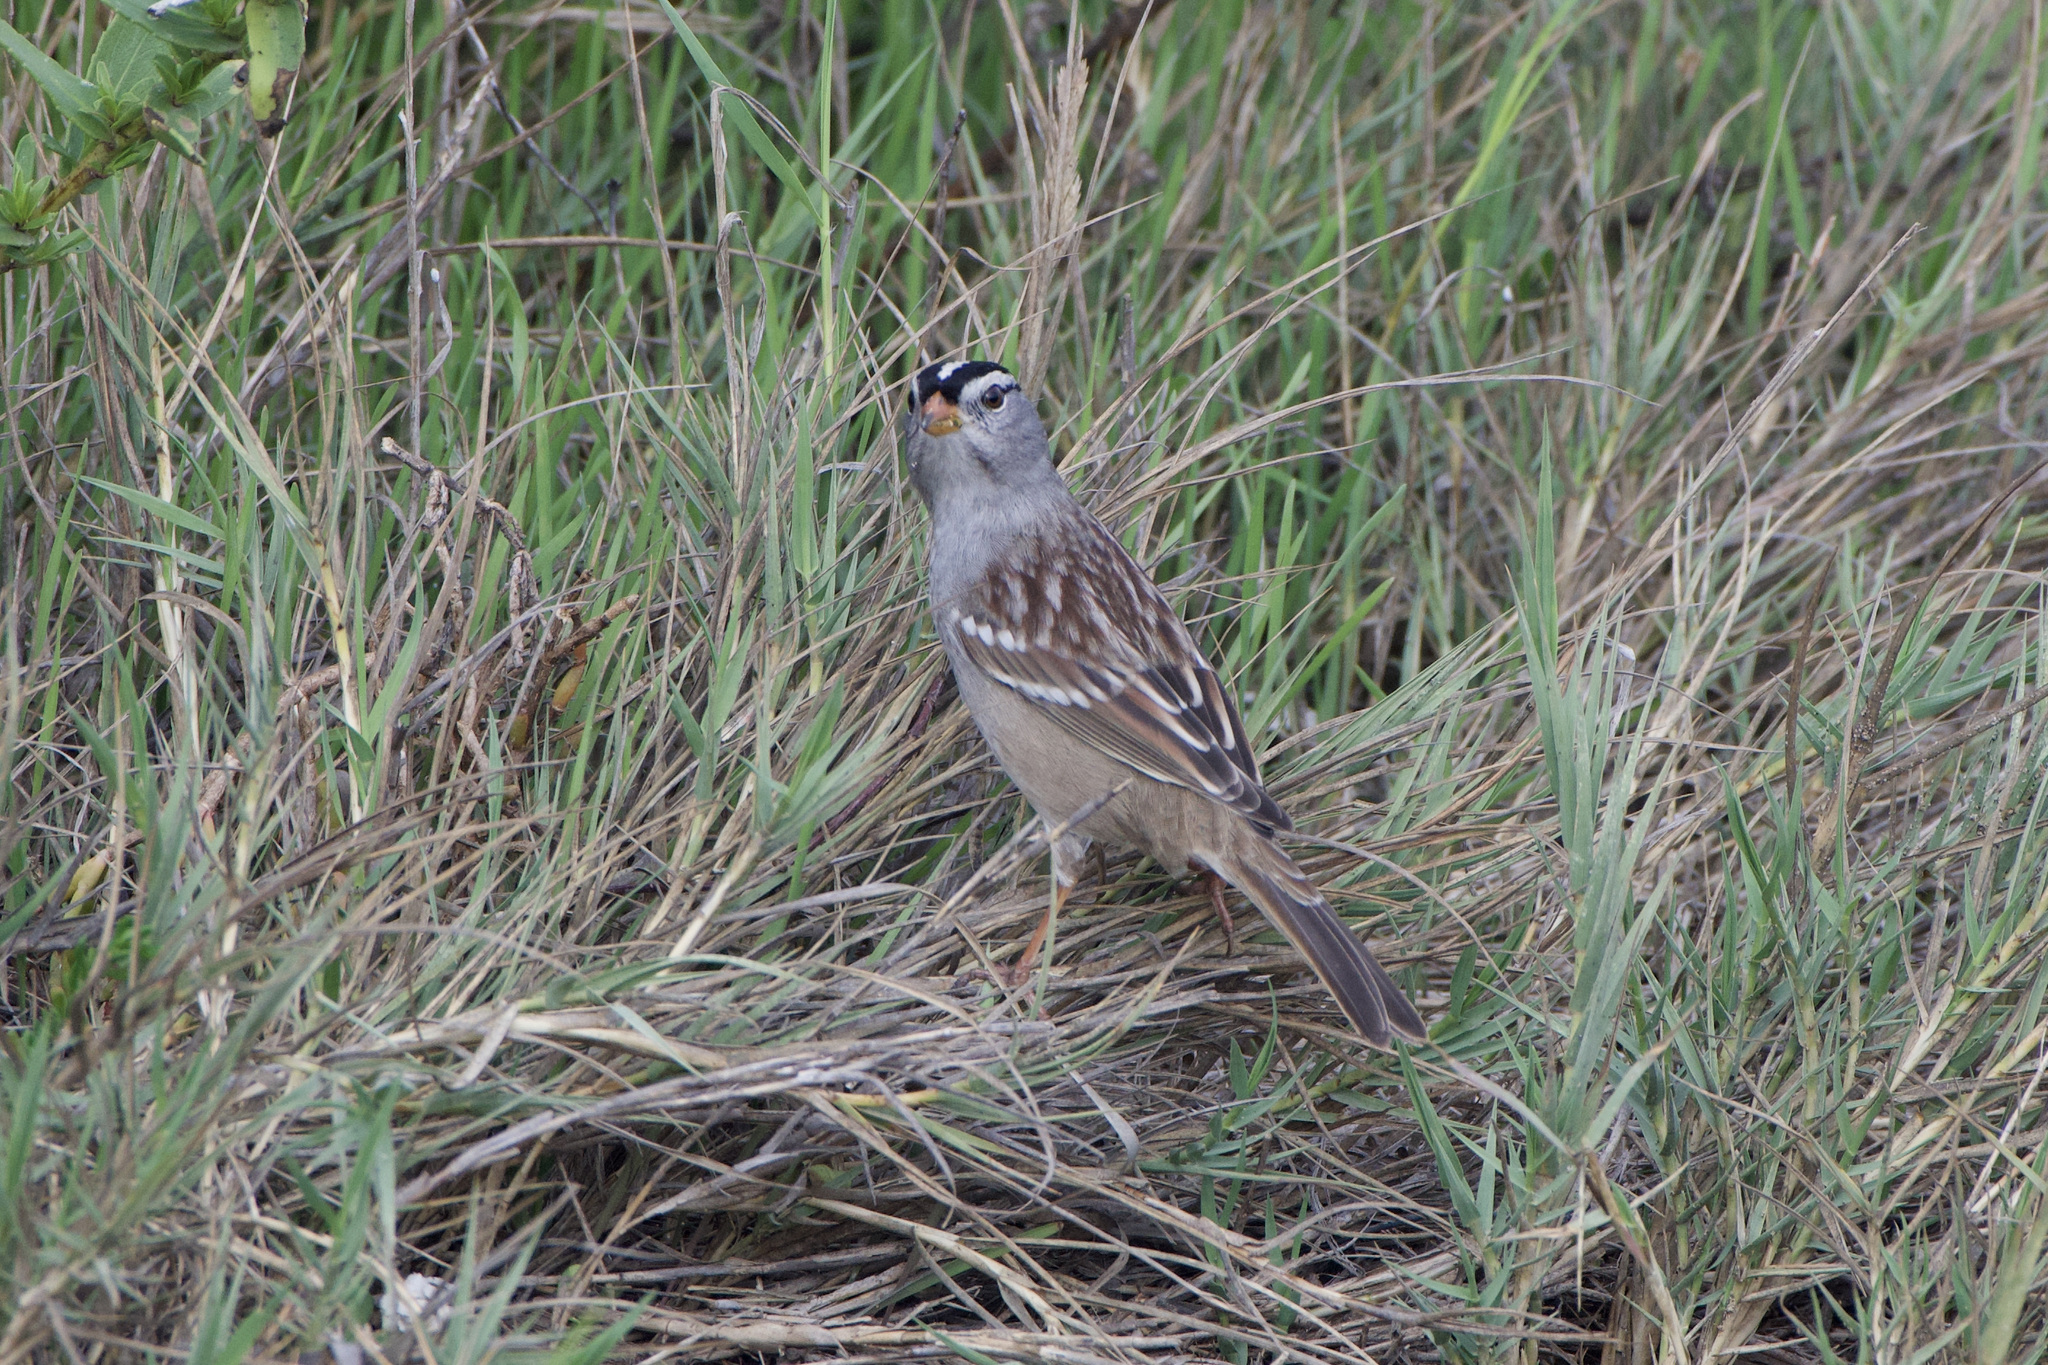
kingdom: Animalia
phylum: Chordata
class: Aves
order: Passeriformes
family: Passerellidae
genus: Zonotrichia
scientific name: Zonotrichia leucophrys
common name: White-crowned sparrow
